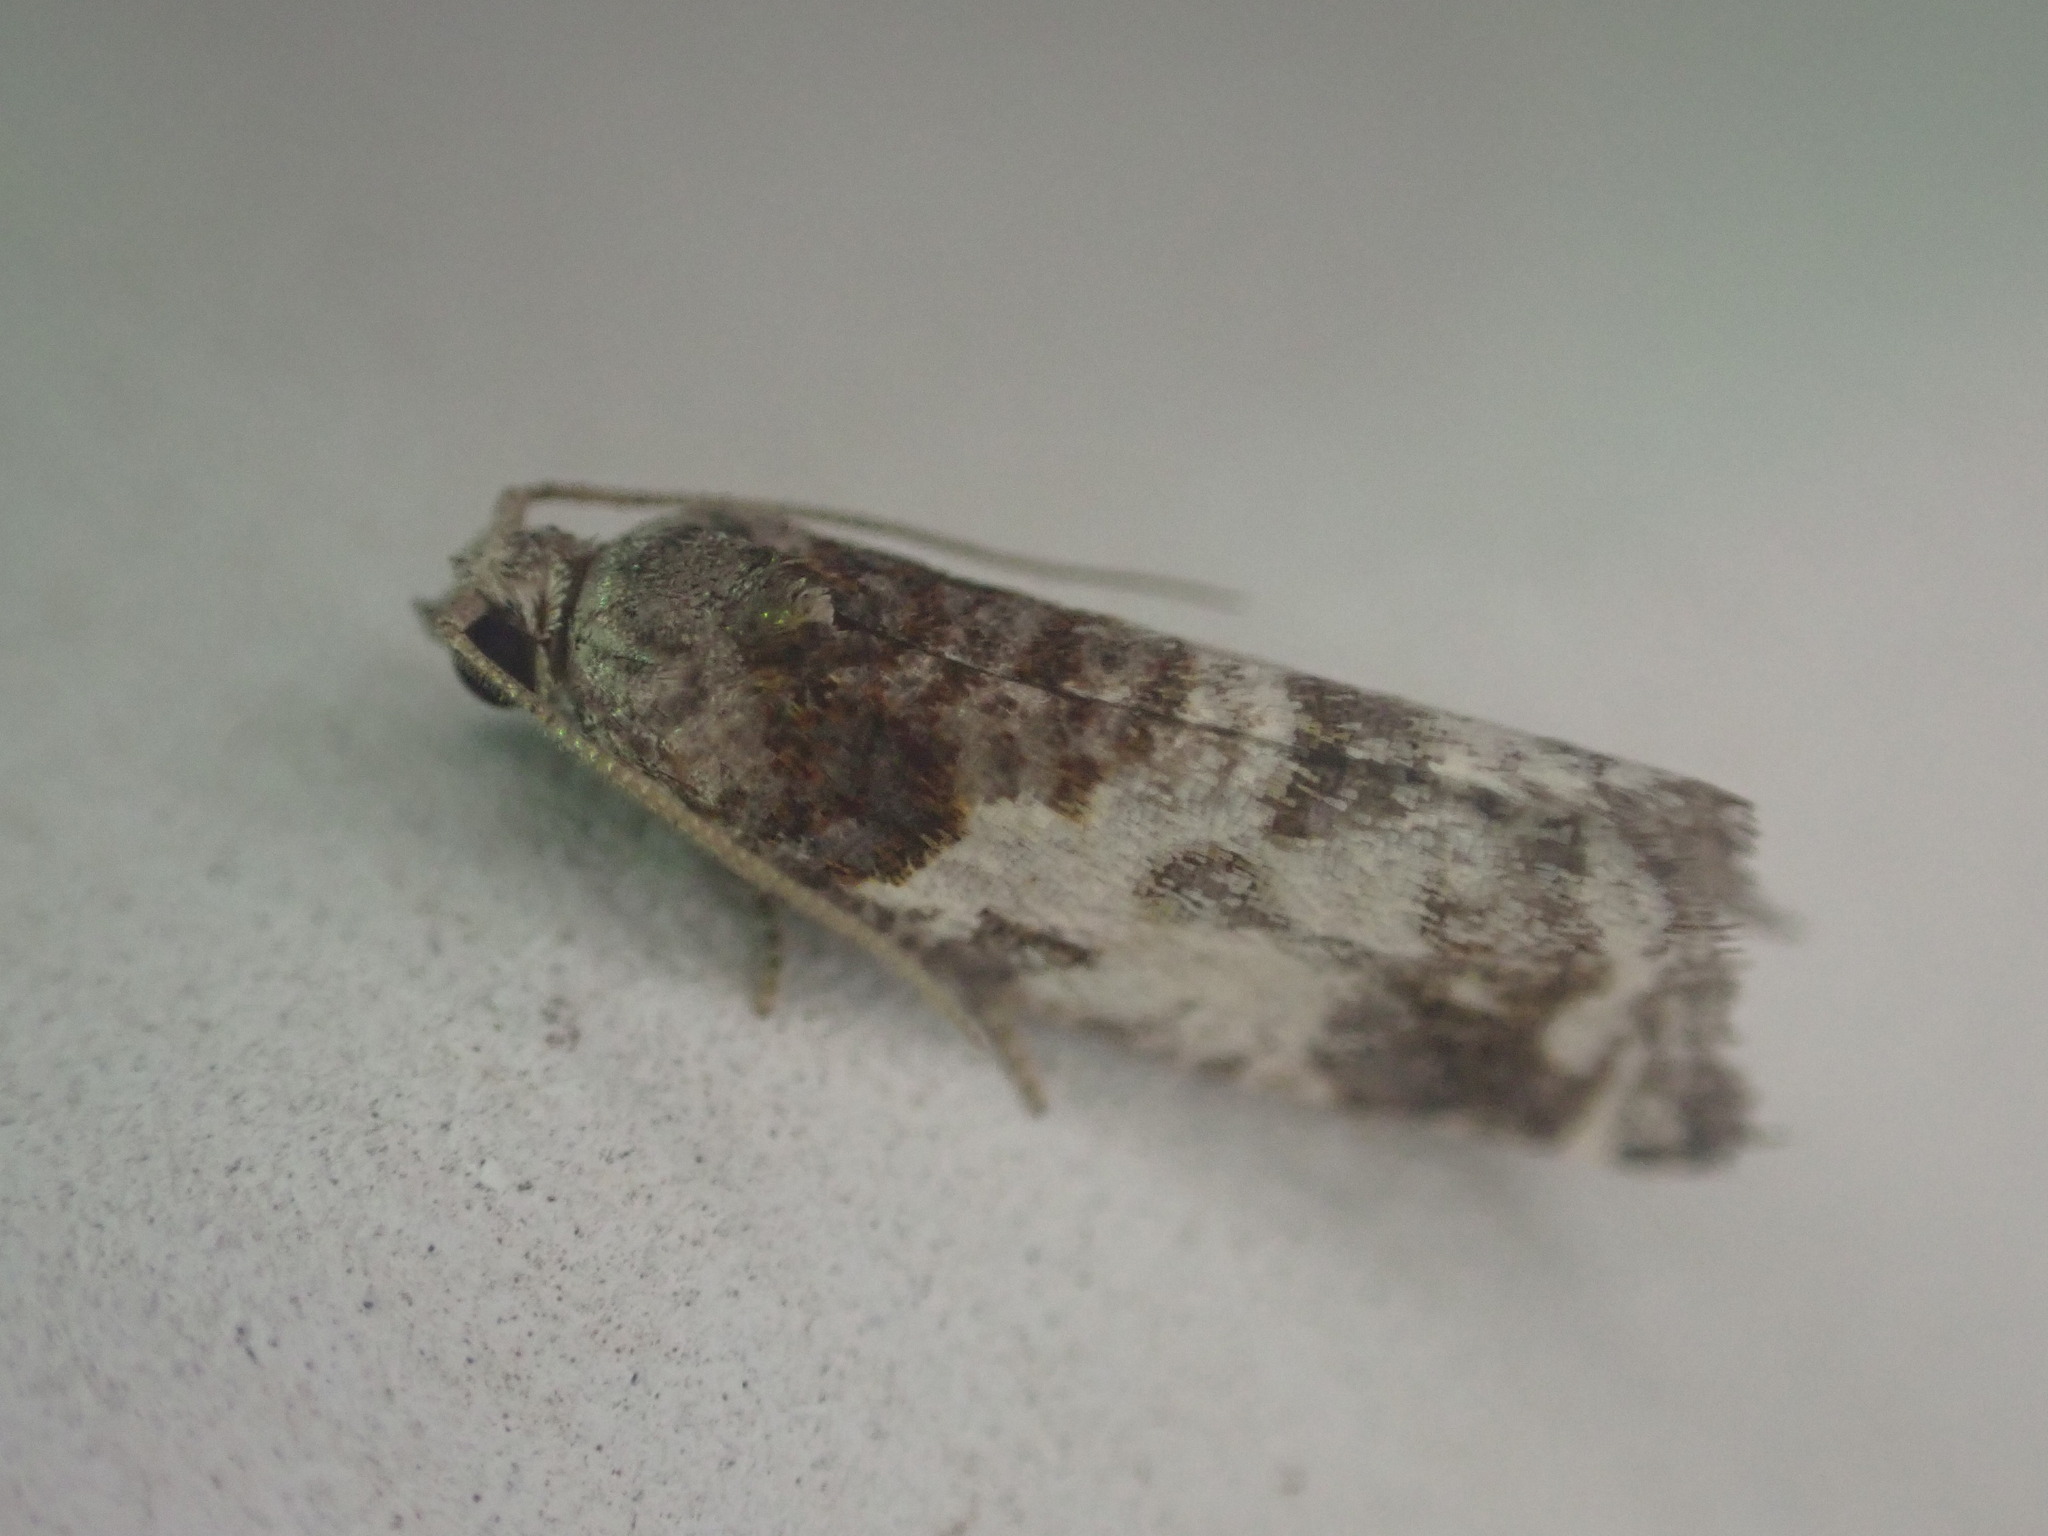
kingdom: Animalia
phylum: Arthropoda
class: Insecta
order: Lepidoptera
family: Tortricidae
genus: Pyrgotis
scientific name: Pyrgotis calligypsa
